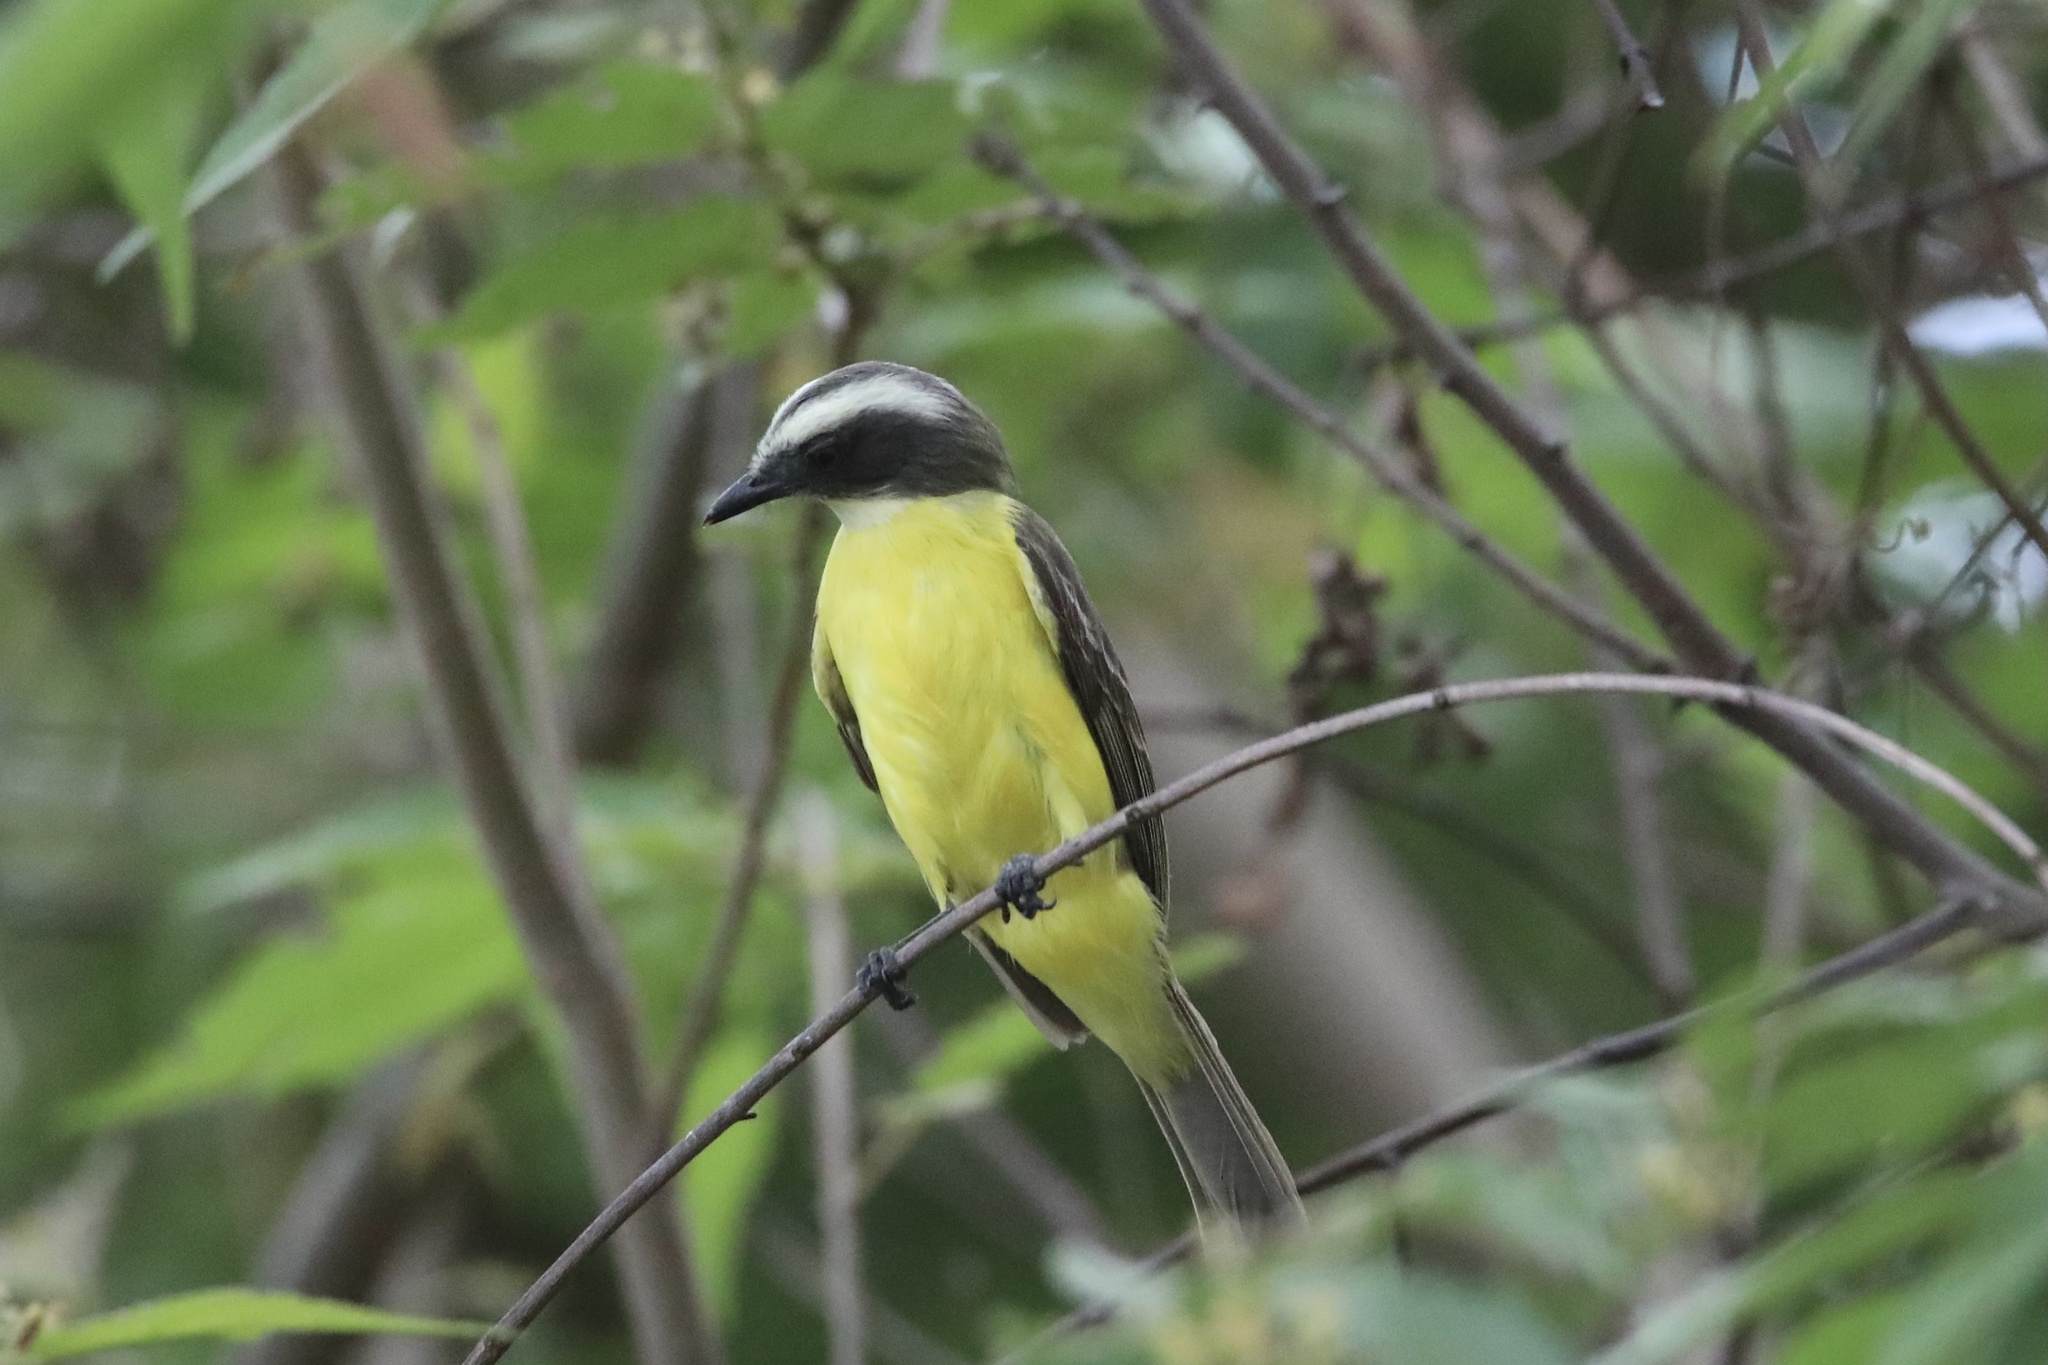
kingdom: Animalia
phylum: Chordata
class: Aves
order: Passeriformes
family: Tyrannidae
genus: Myiozetetes
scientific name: Myiozetetes similis
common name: Social flycatcher
